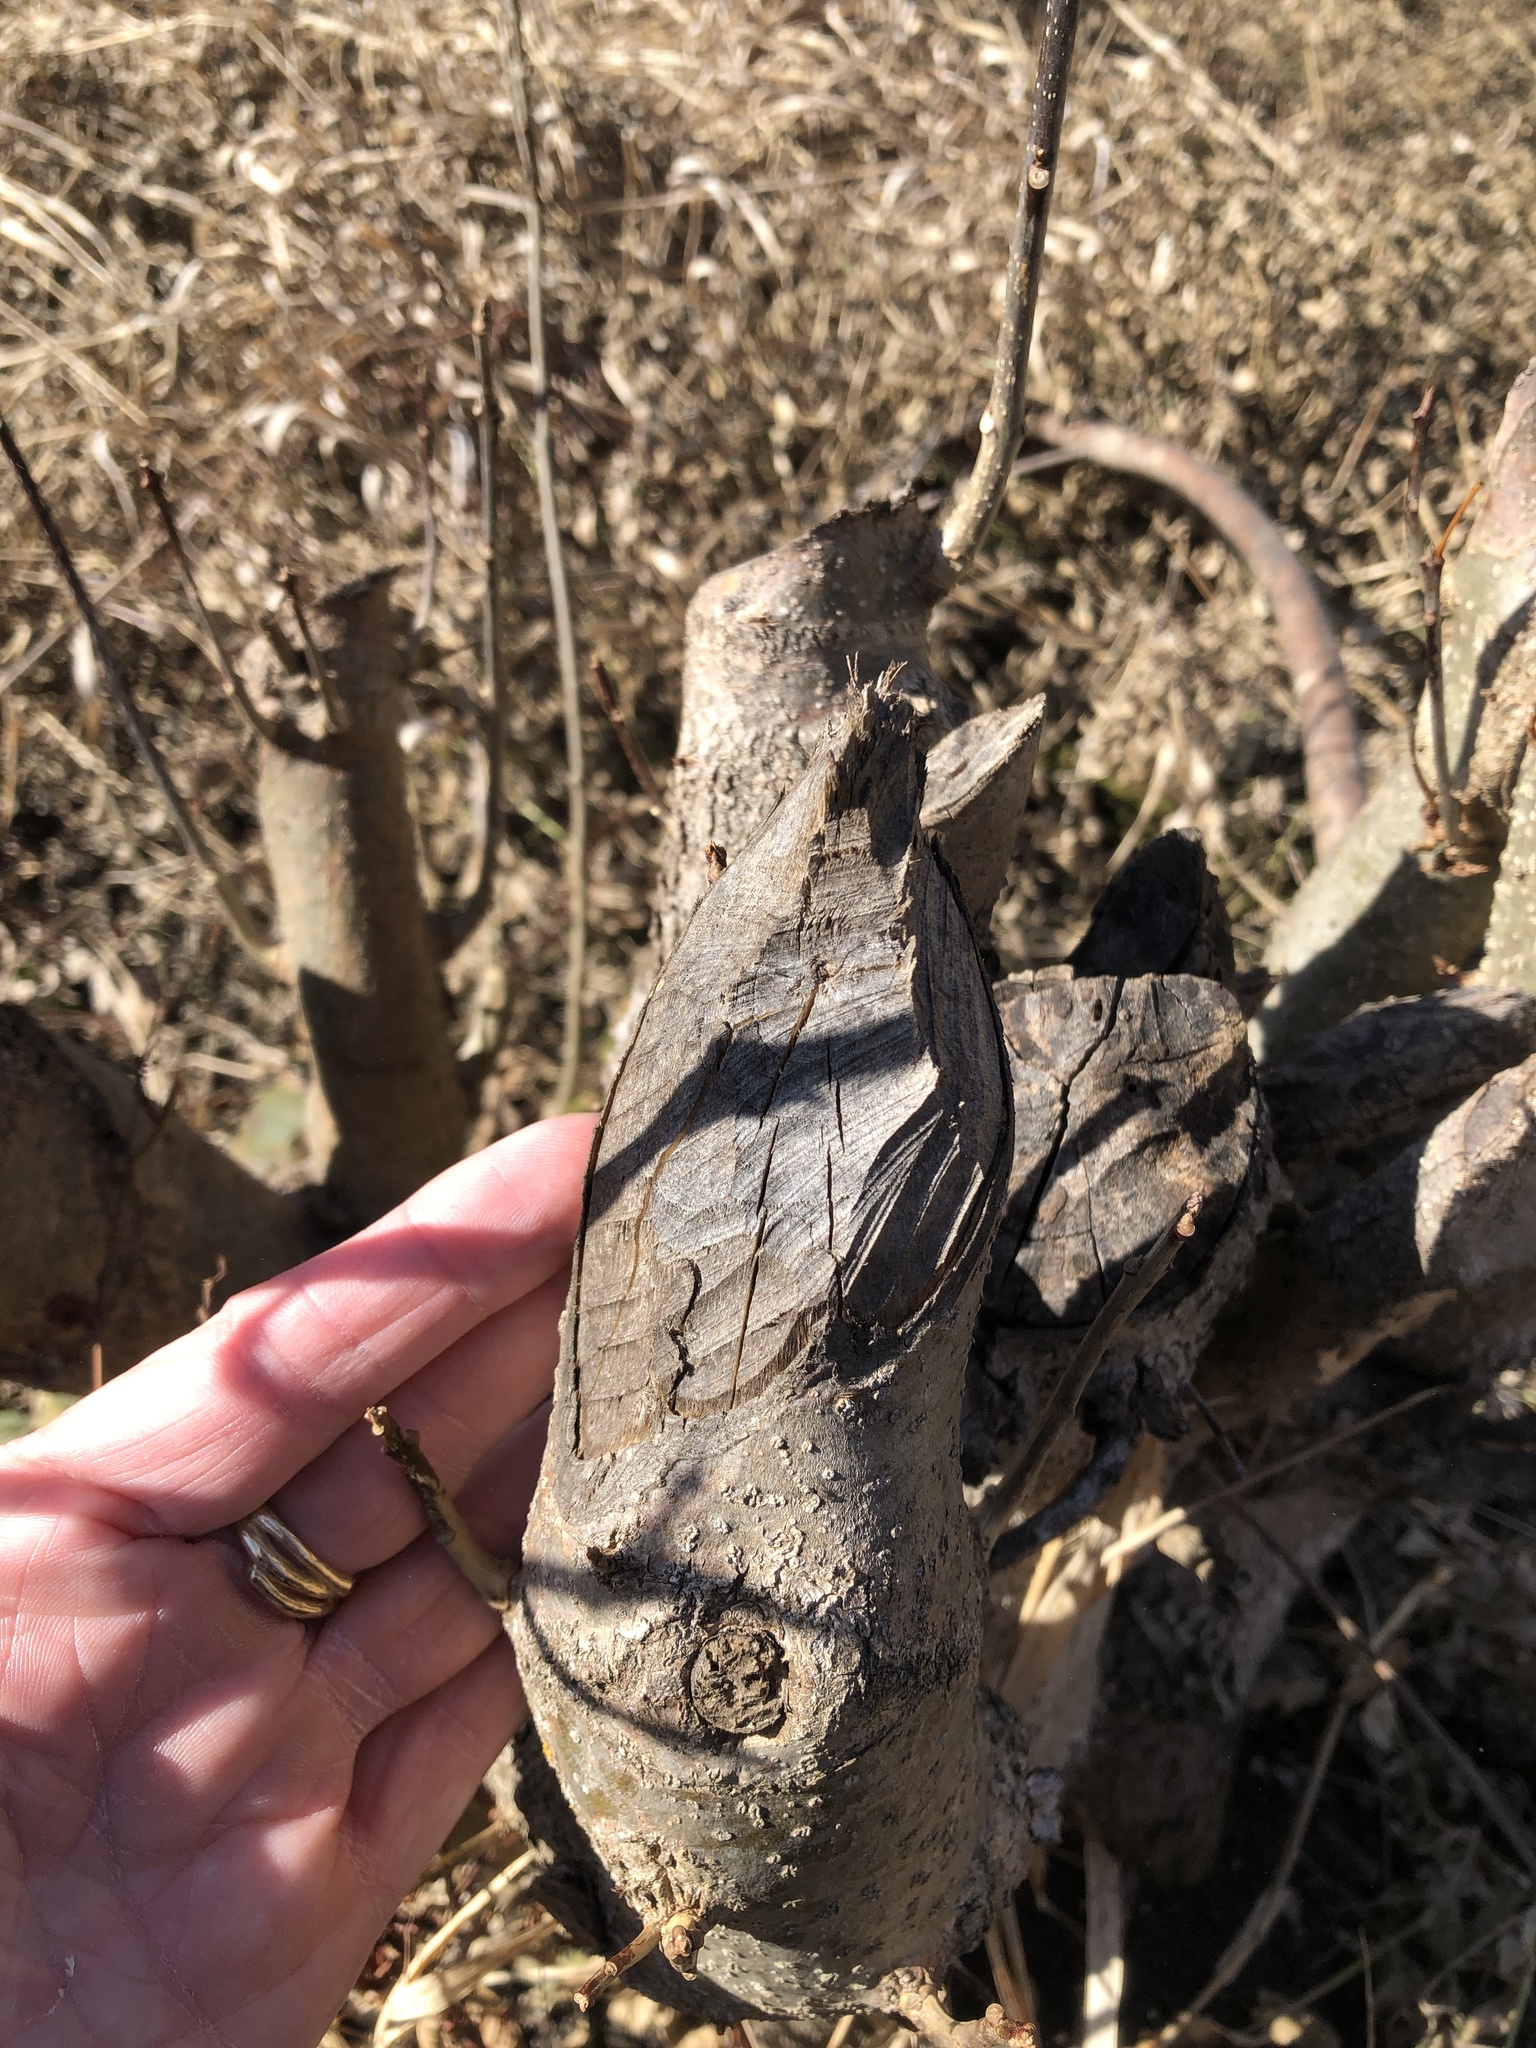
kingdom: Animalia
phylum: Chordata
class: Mammalia
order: Rodentia
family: Castoridae
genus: Castor
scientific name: Castor canadensis
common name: American beaver
